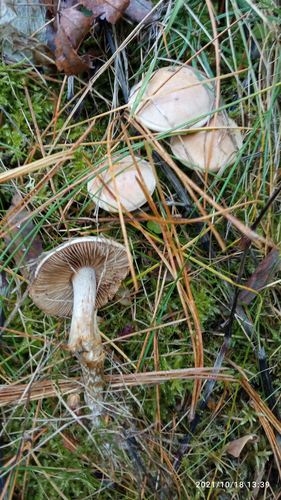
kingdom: Fungi
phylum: Basidiomycota
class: Agaricomycetes
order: Agaricales
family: Hymenogastraceae
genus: Hebeloma
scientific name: Hebeloma crustuliniforme
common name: Poison pie
